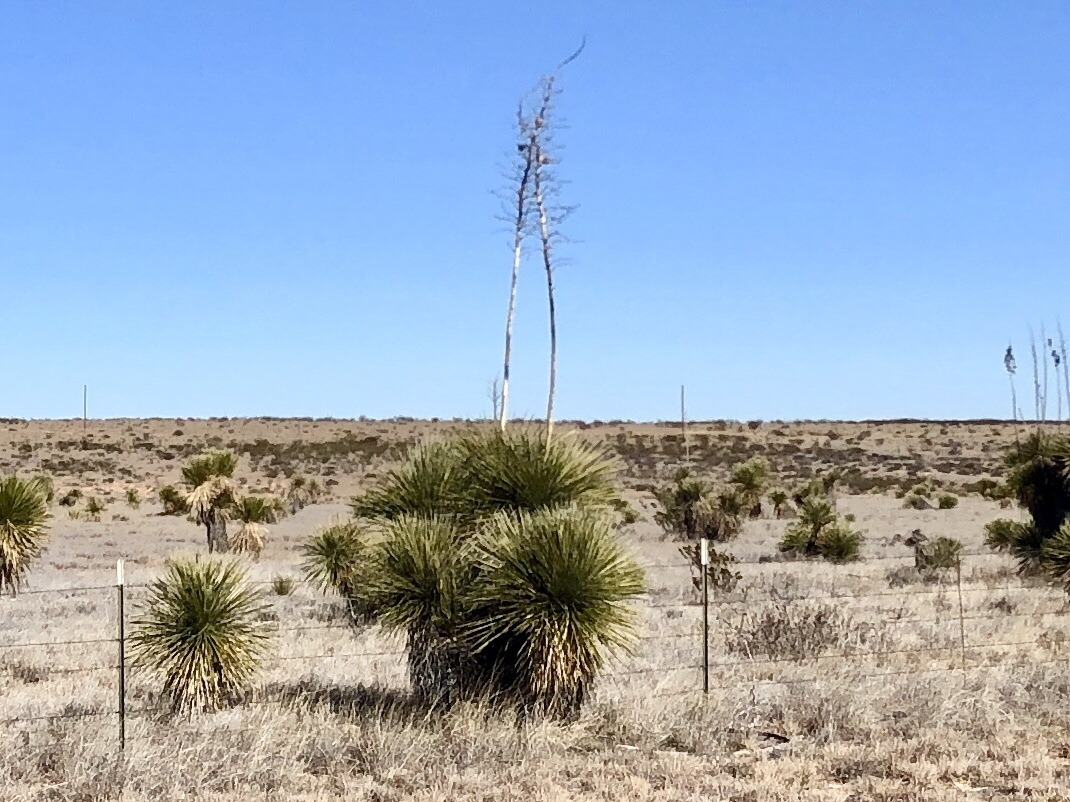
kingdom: Plantae
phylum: Tracheophyta
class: Liliopsida
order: Asparagales
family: Asparagaceae
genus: Yucca
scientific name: Yucca elata
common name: Palmella
